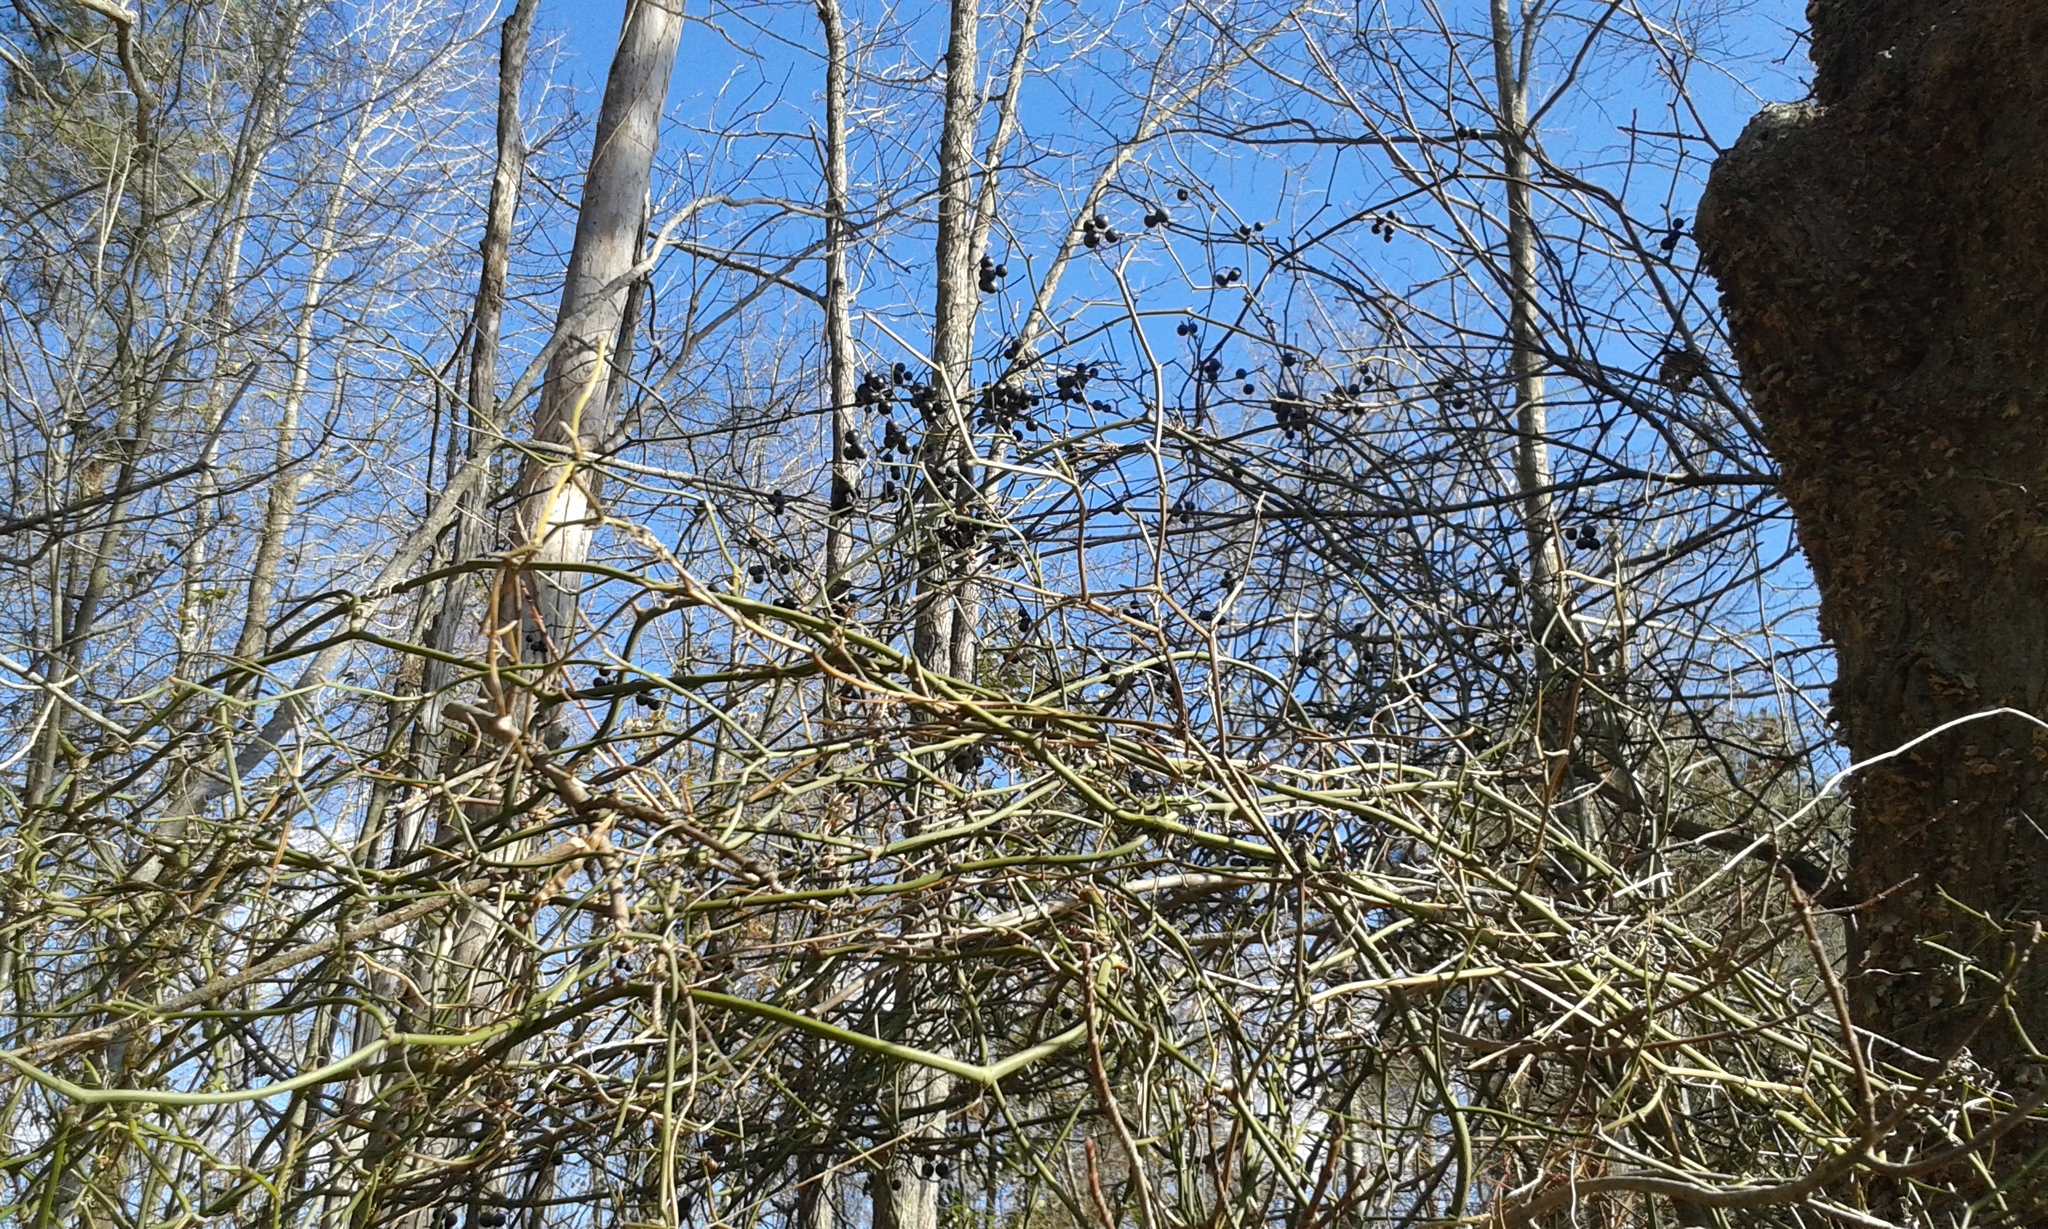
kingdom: Plantae
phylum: Tracheophyta
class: Liliopsida
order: Liliales
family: Smilacaceae
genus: Smilax
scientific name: Smilax rotundifolia
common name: Bullbriar
